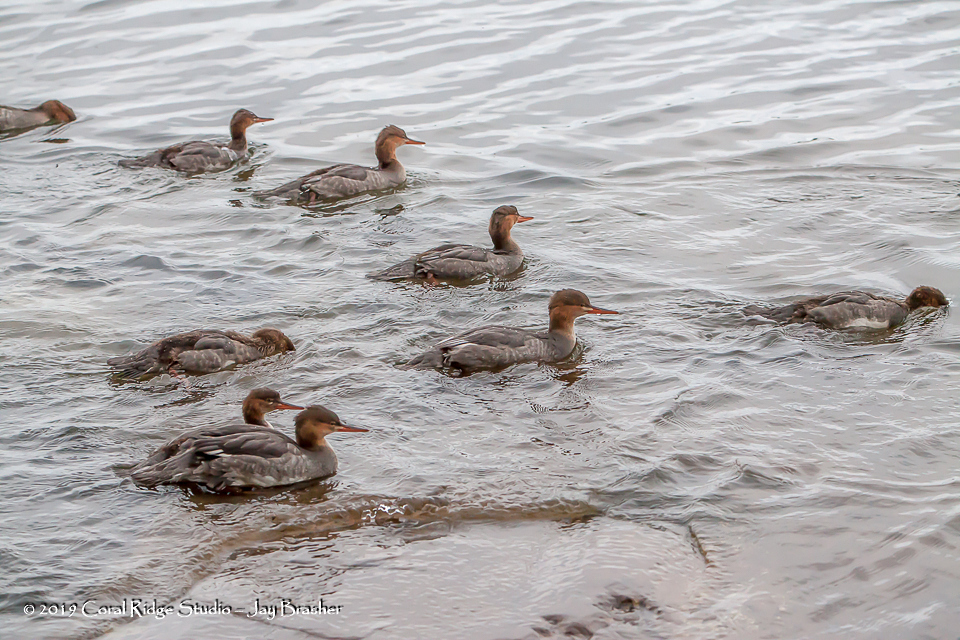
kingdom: Animalia
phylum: Chordata
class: Aves
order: Anseriformes
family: Anatidae
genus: Mergus
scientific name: Mergus serrator
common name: Red-breasted merganser
